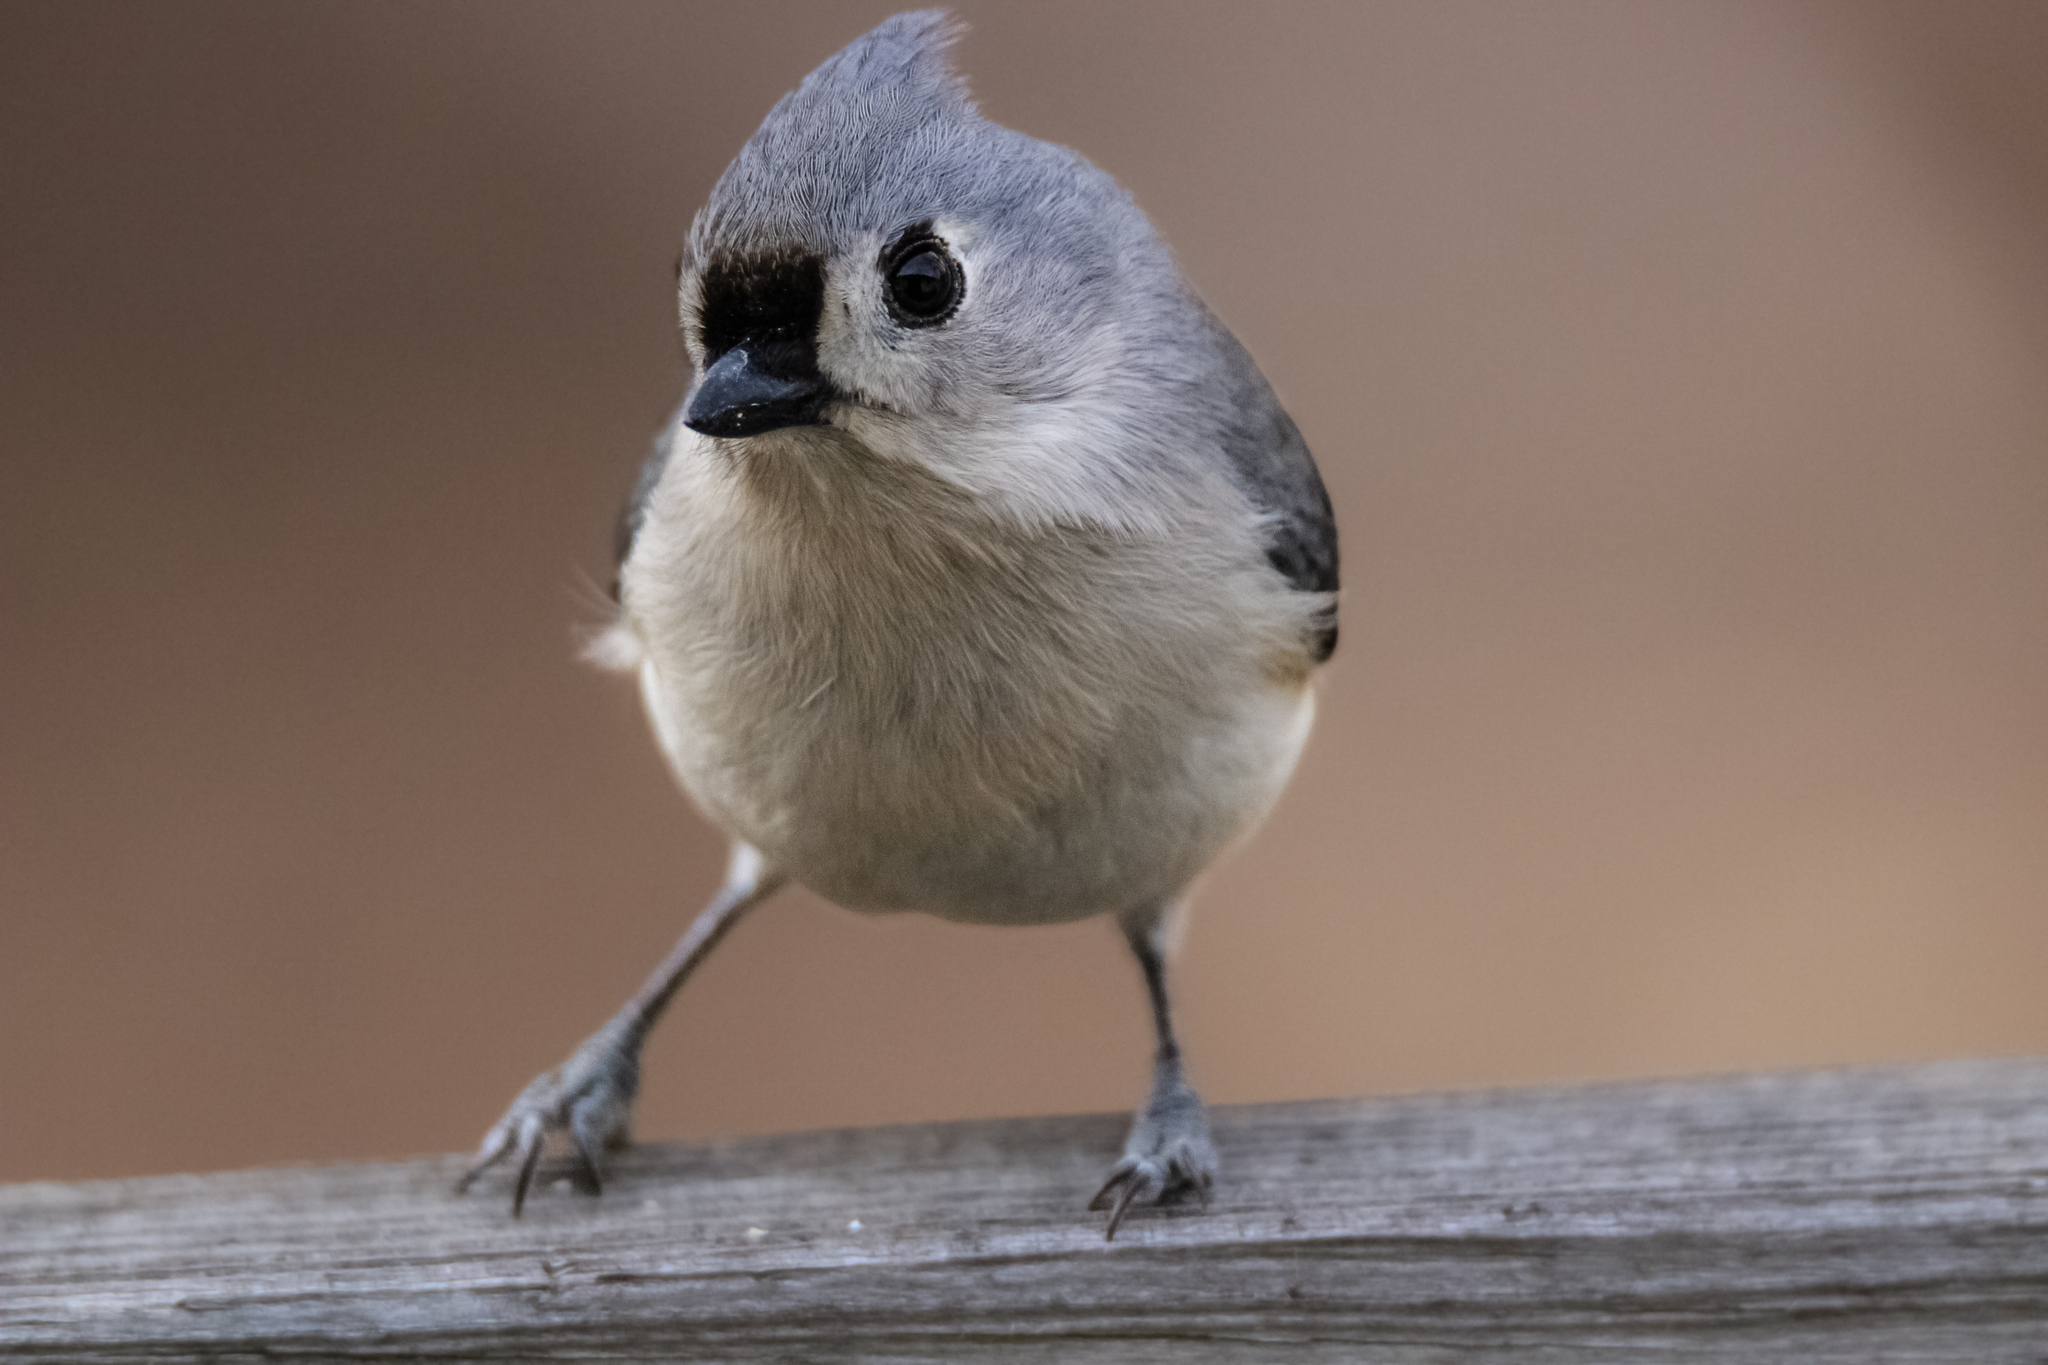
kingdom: Animalia
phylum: Chordata
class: Aves
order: Passeriformes
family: Paridae
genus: Baeolophus
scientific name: Baeolophus bicolor
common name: Tufted titmouse
